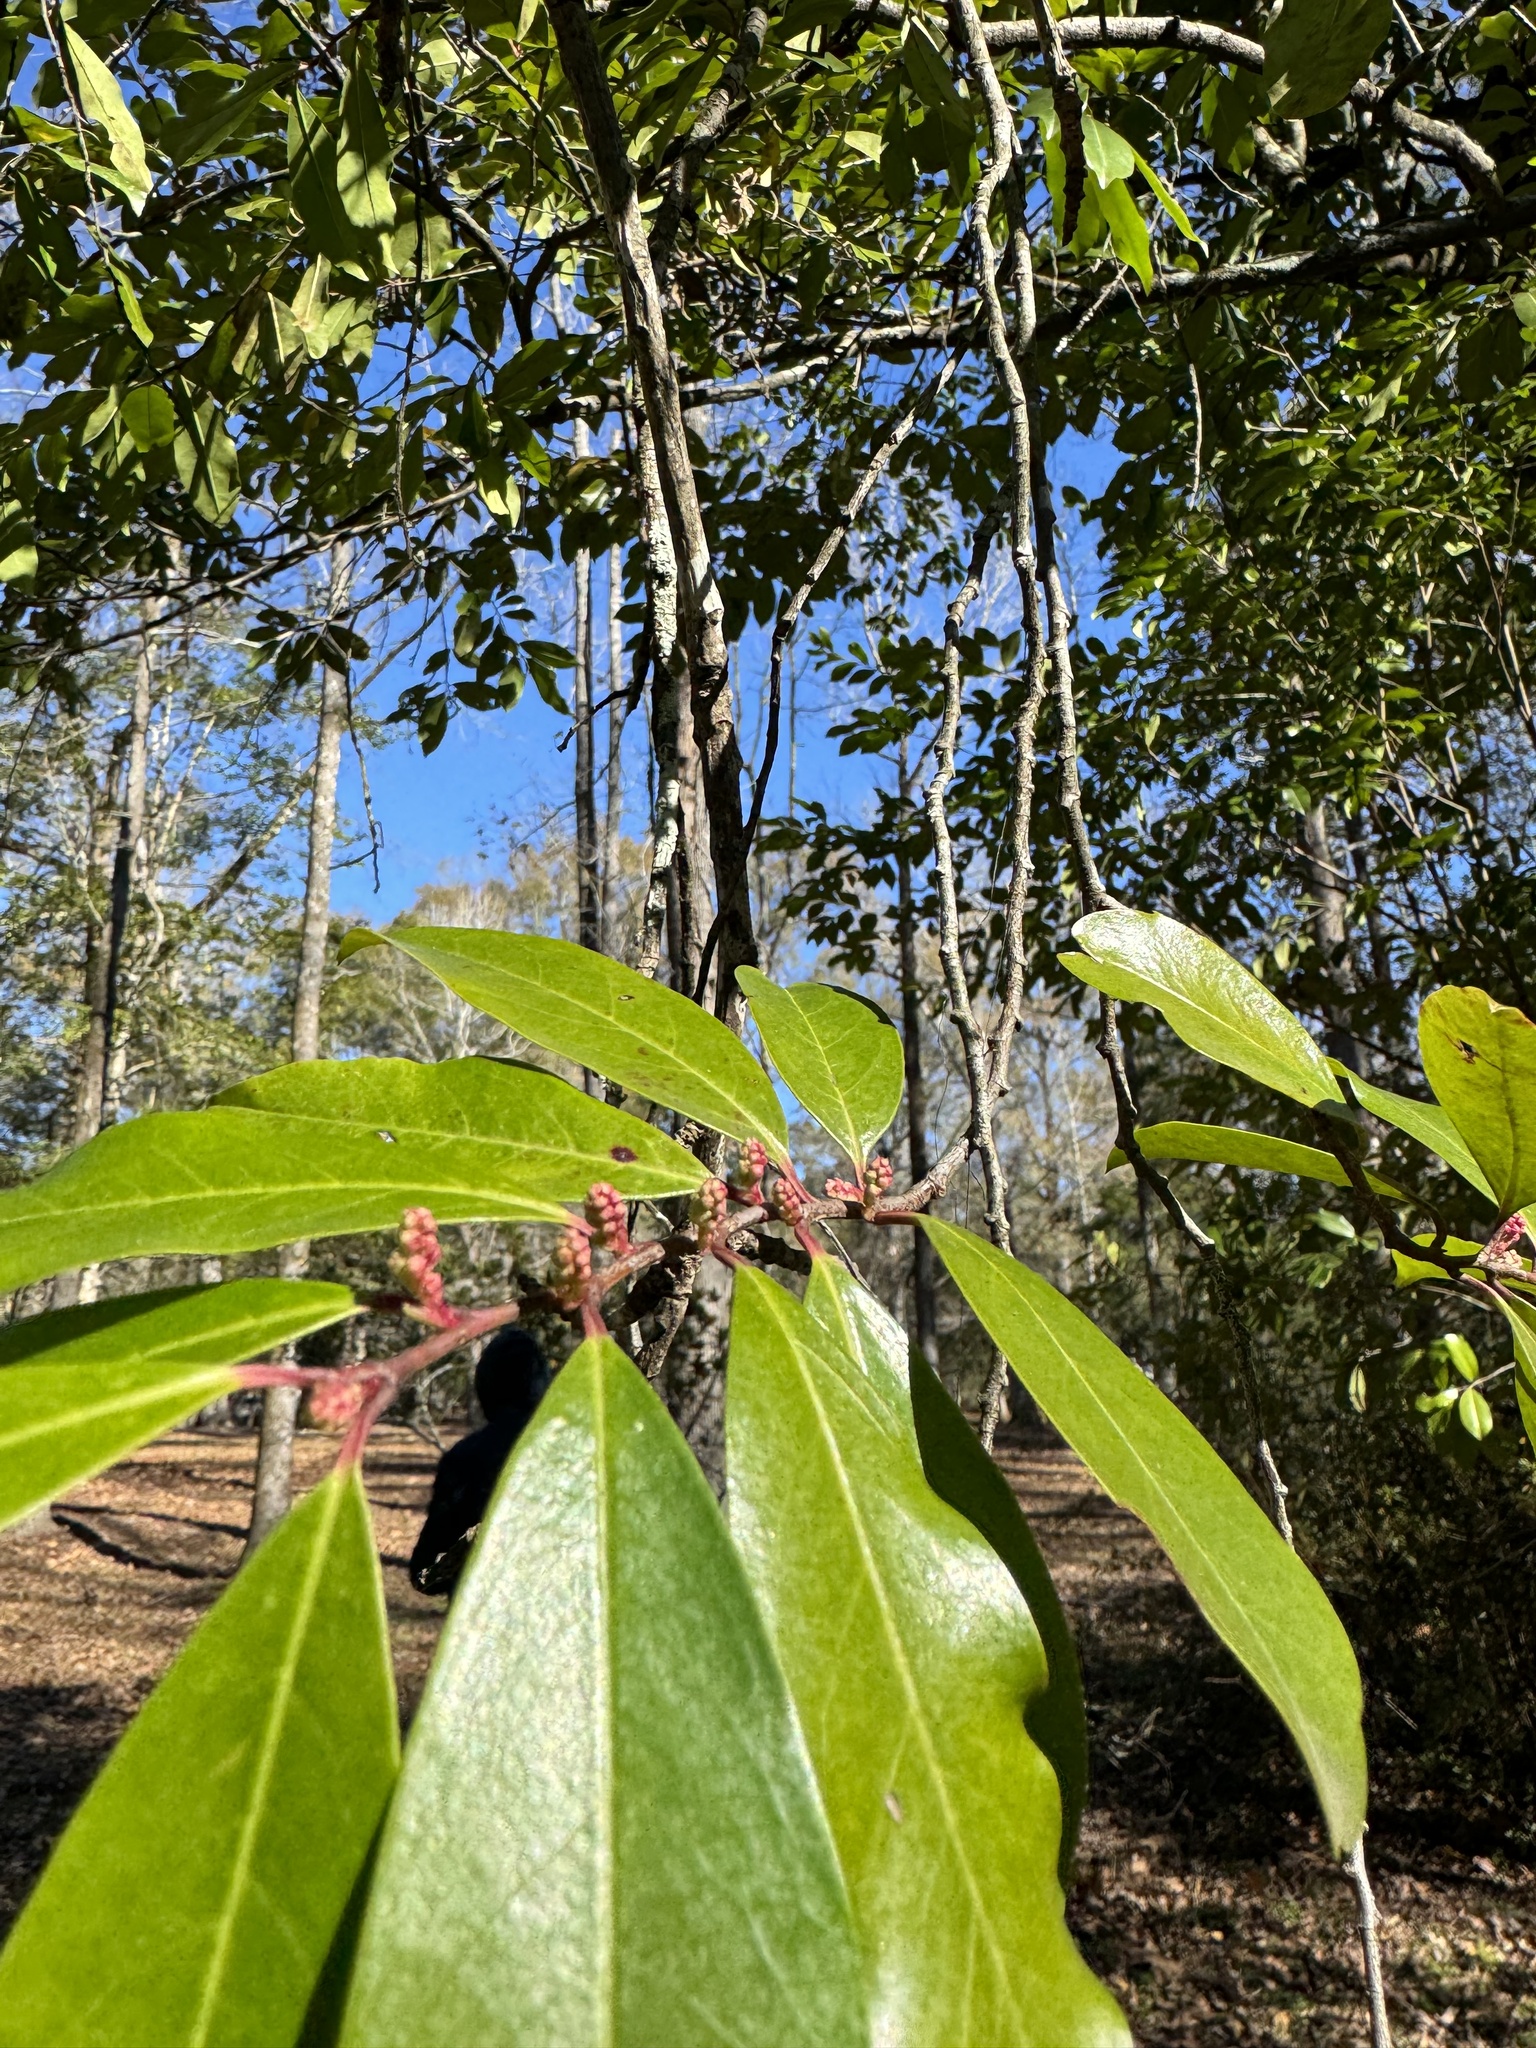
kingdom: Plantae
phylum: Tracheophyta
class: Magnoliopsida
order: Rosales
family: Rosaceae
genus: Prunus
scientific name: Prunus caroliniana
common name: Carolina laurel cherry
